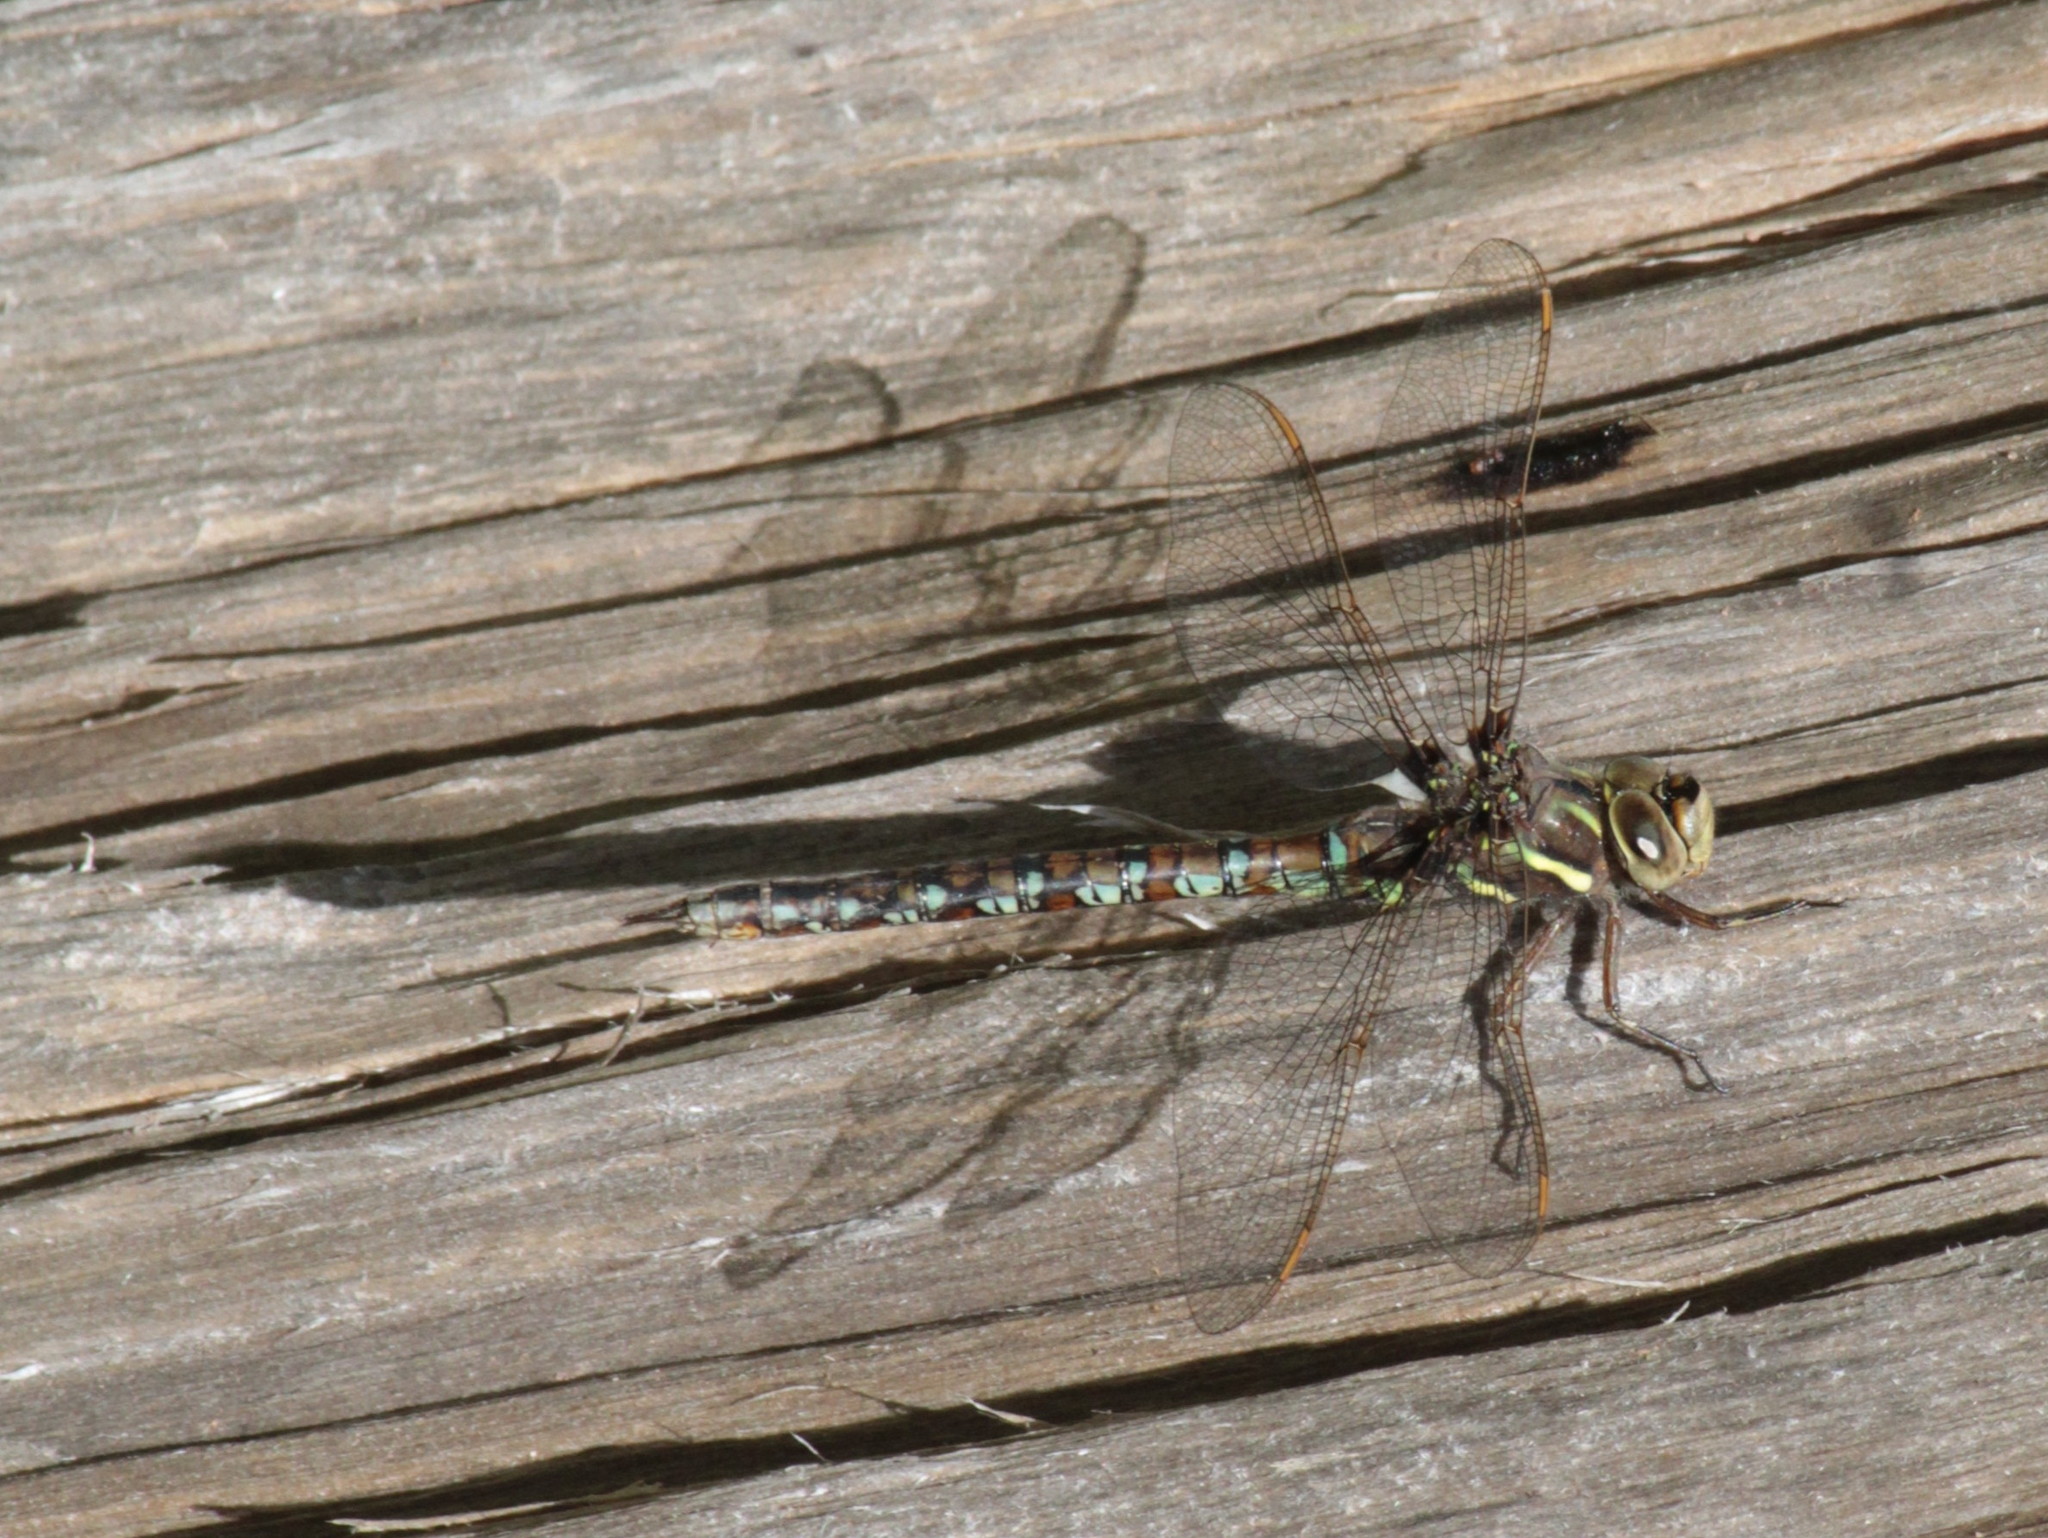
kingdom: Animalia
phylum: Arthropoda
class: Insecta
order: Odonata
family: Aeshnidae
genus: Basiaeschna
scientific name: Basiaeschna janata
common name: Springtime darner
